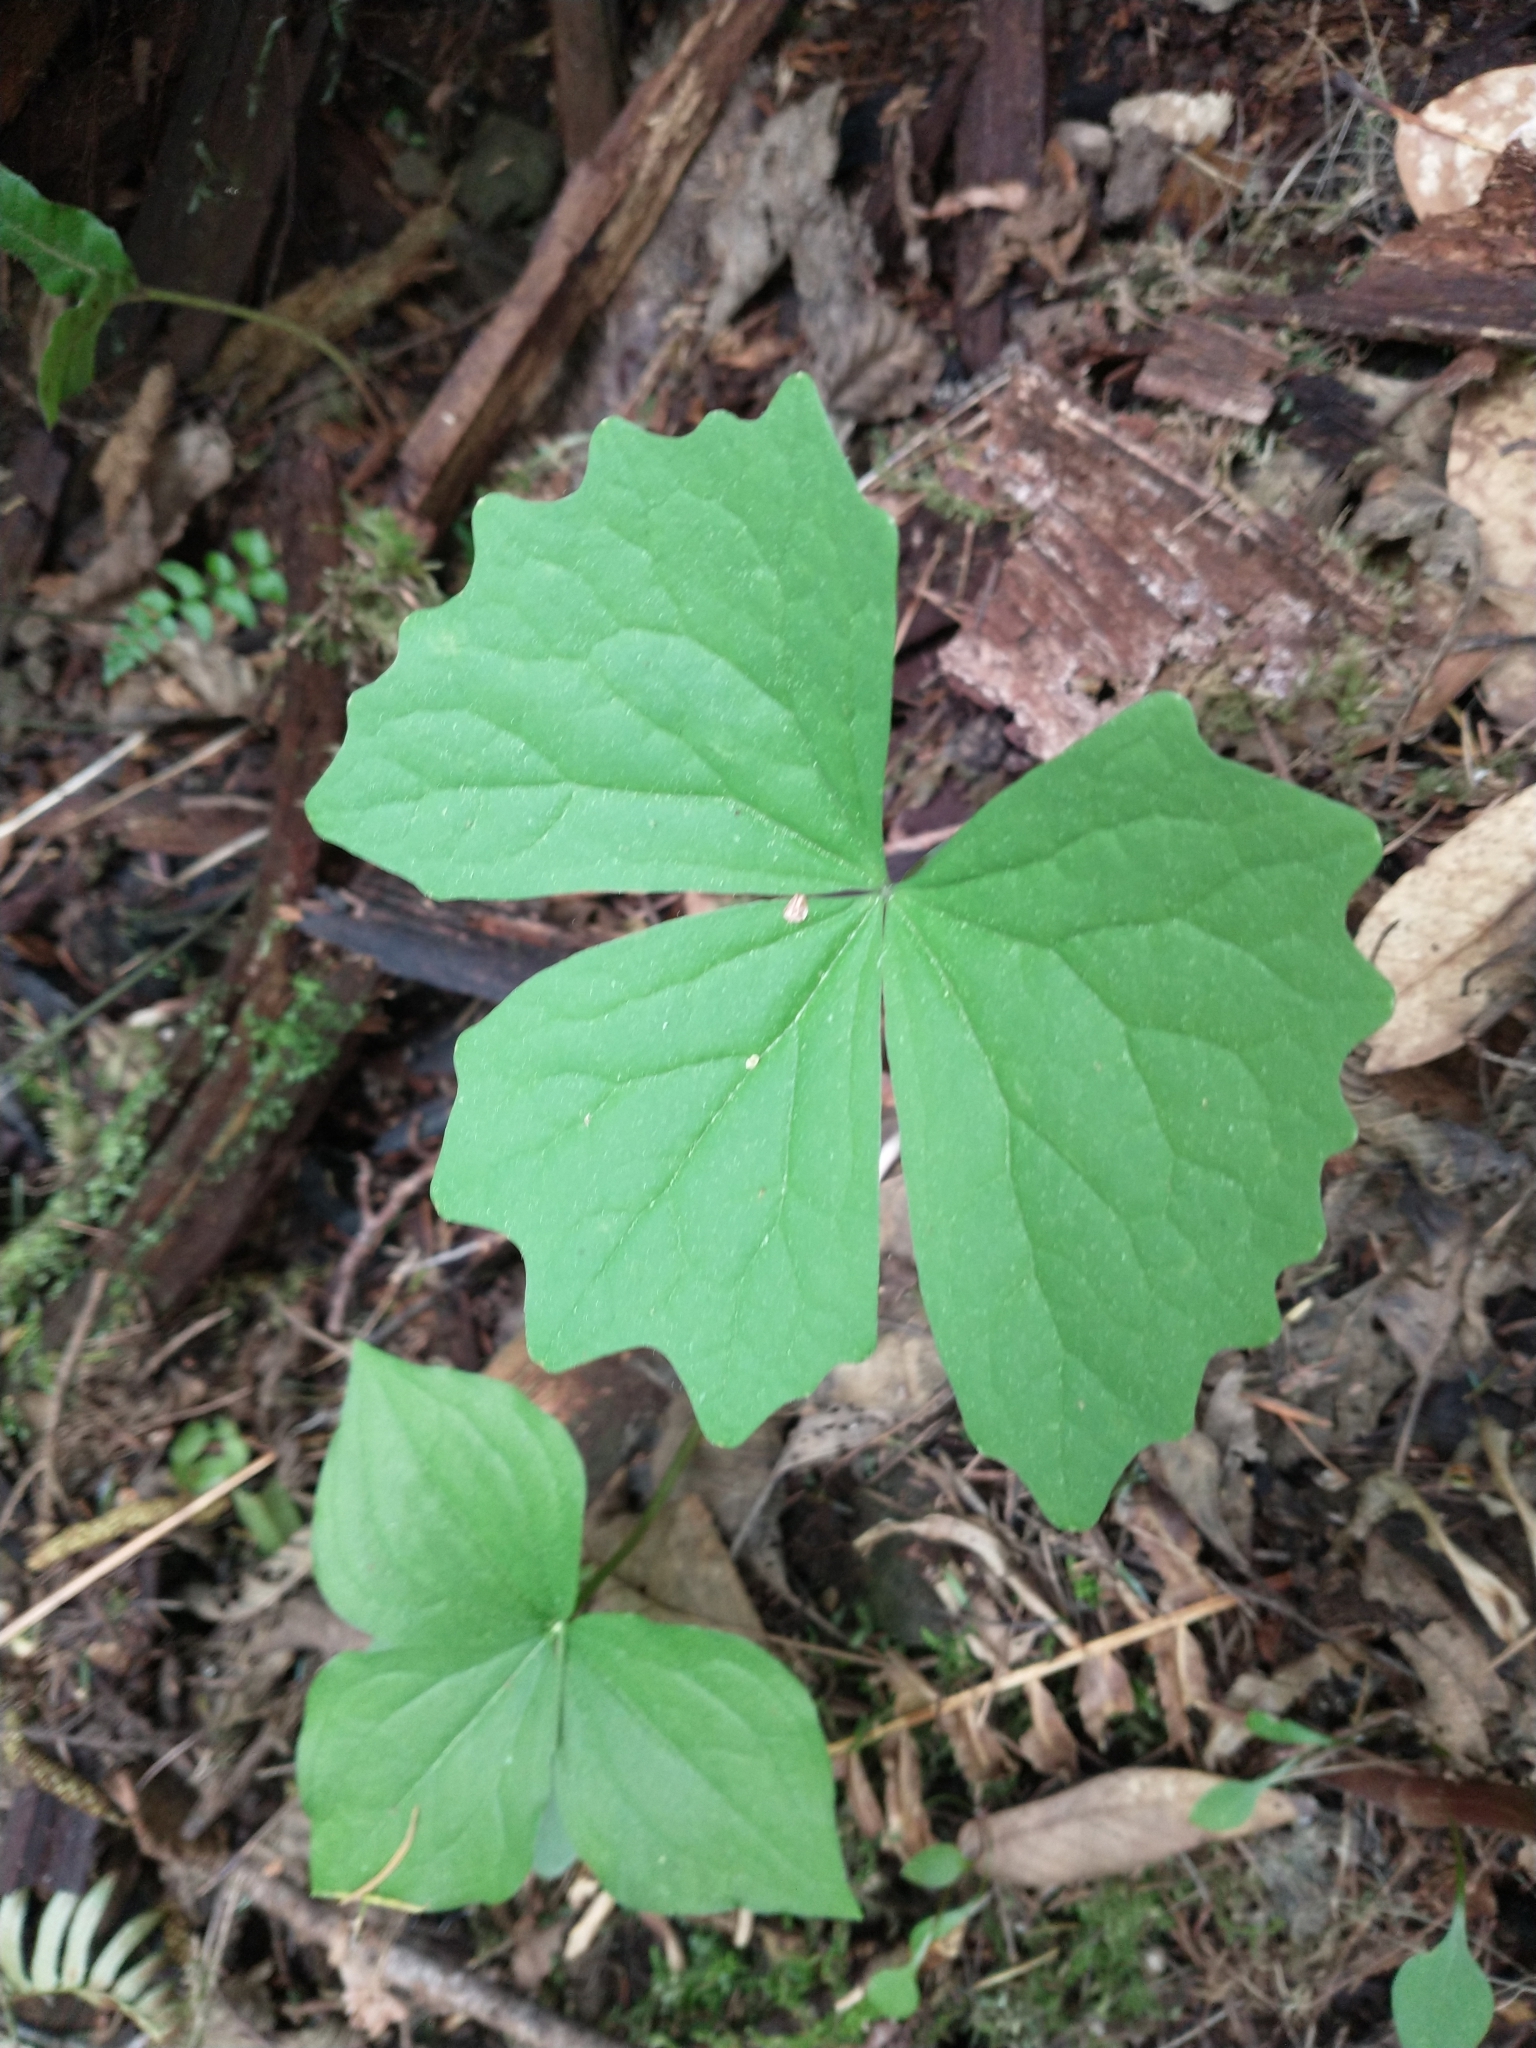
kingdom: Plantae
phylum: Tracheophyta
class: Magnoliopsida
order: Ranunculales
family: Berberidaceae
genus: Achlys
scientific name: Achlys triphylla
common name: Vanilla-leaf
